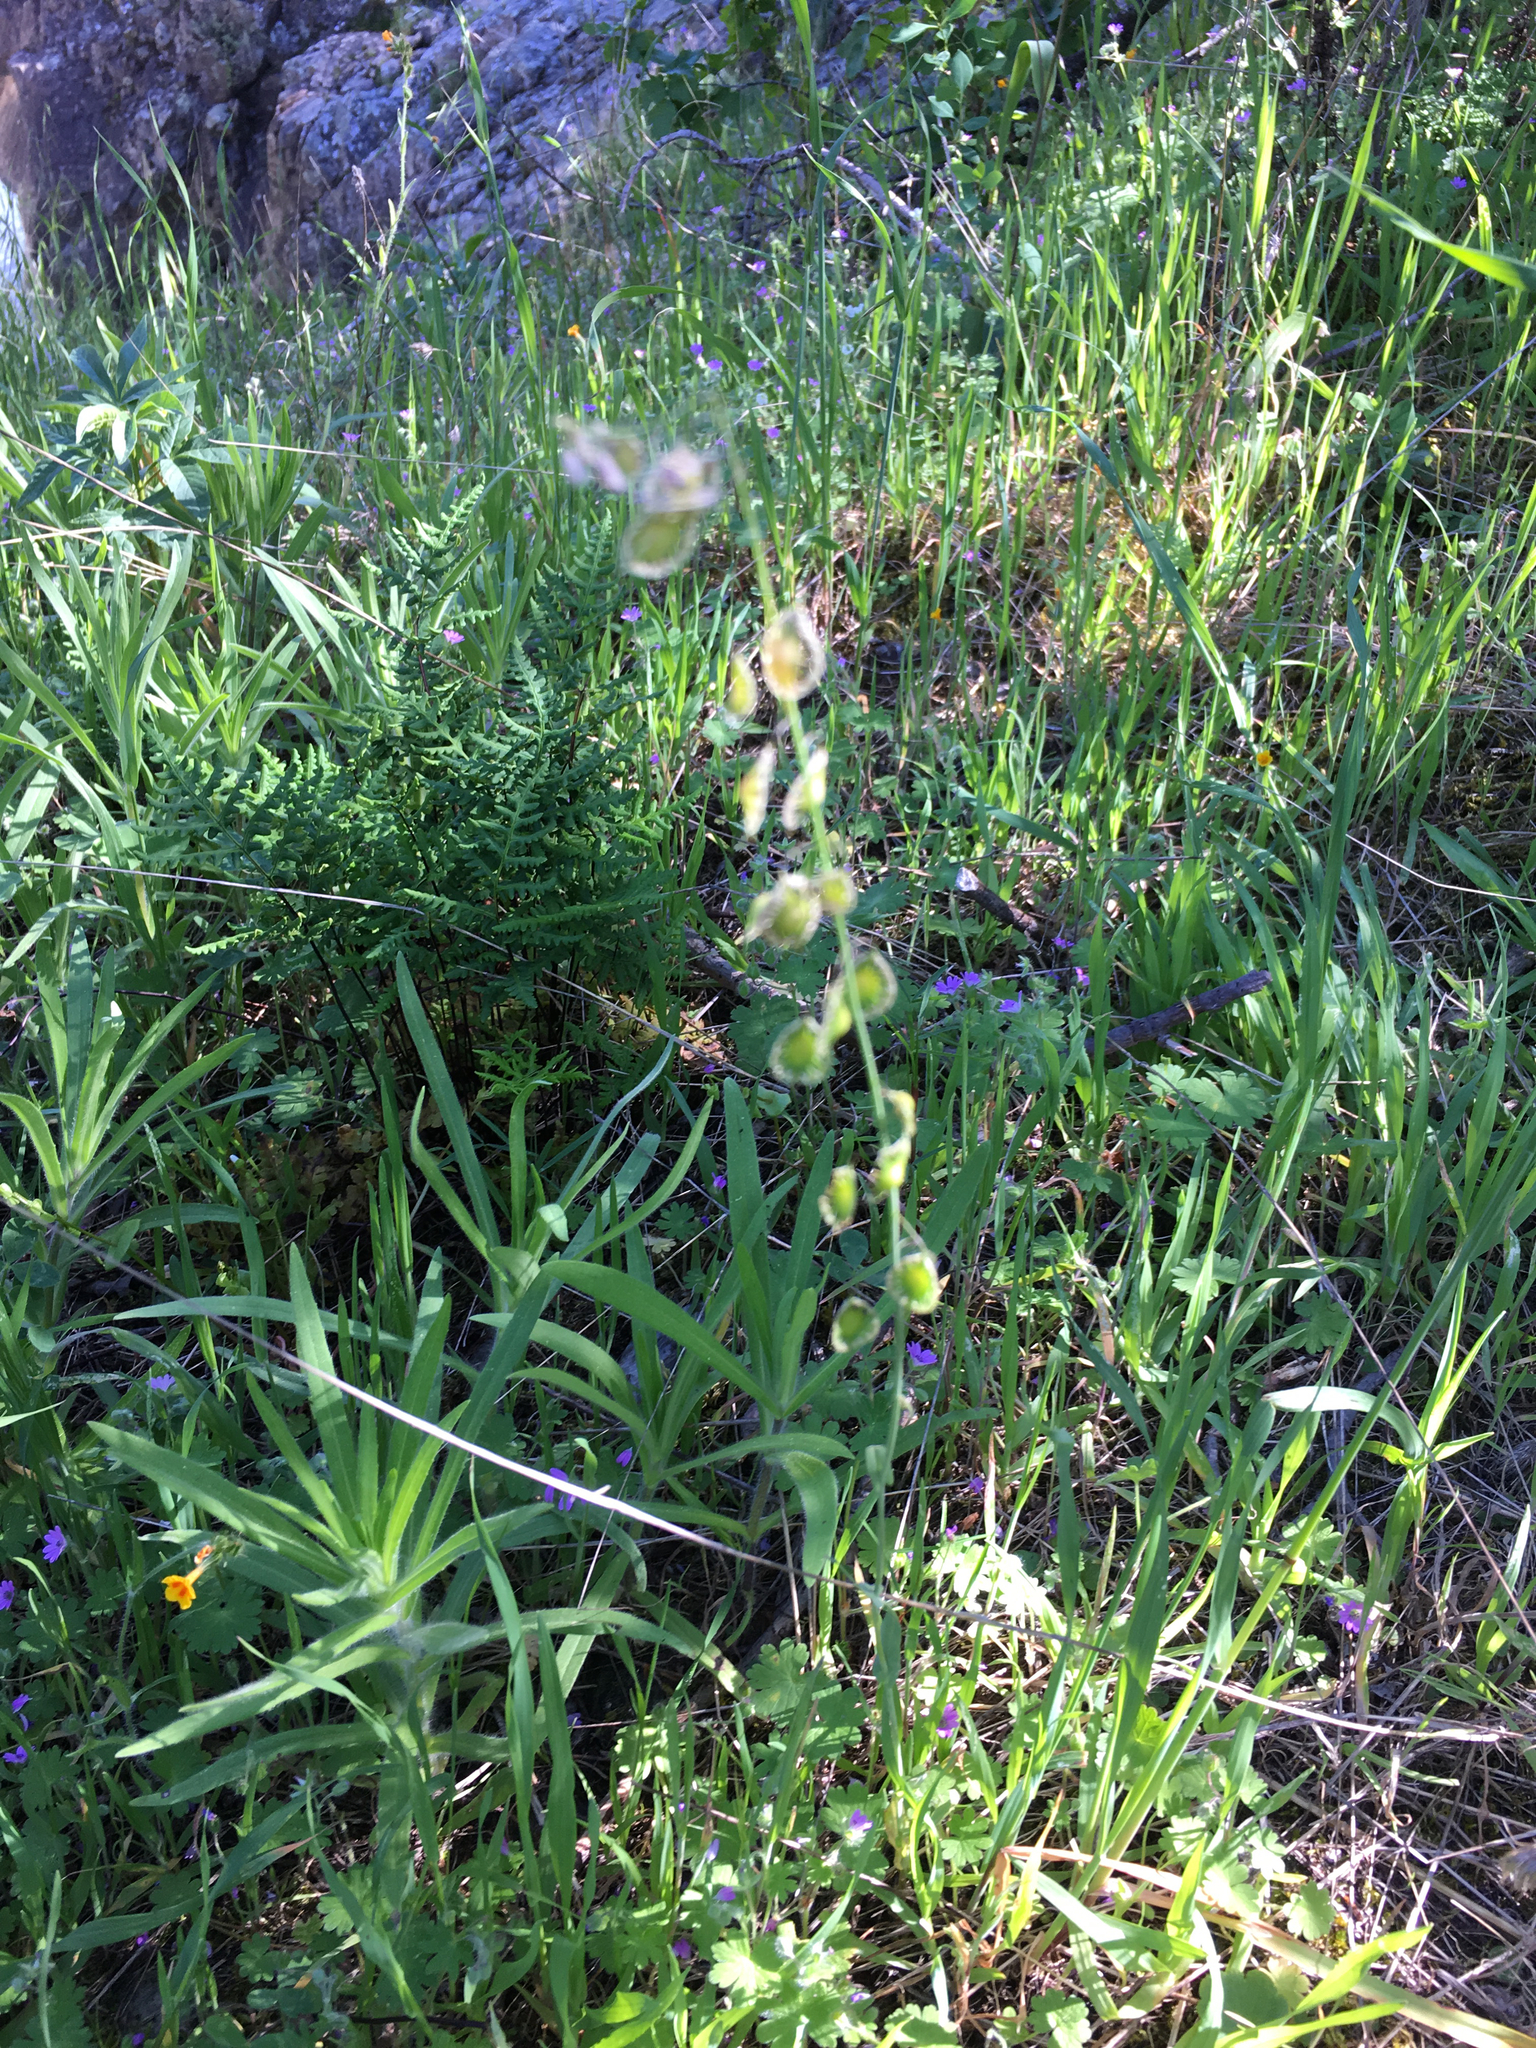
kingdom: Plantae
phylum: Tracheophyta
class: Magnoliopsida
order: Brassicales
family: Brassicaceae
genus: Thysanocarpus
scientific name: Thysanocarpus curvipes
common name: Sand fringepod
